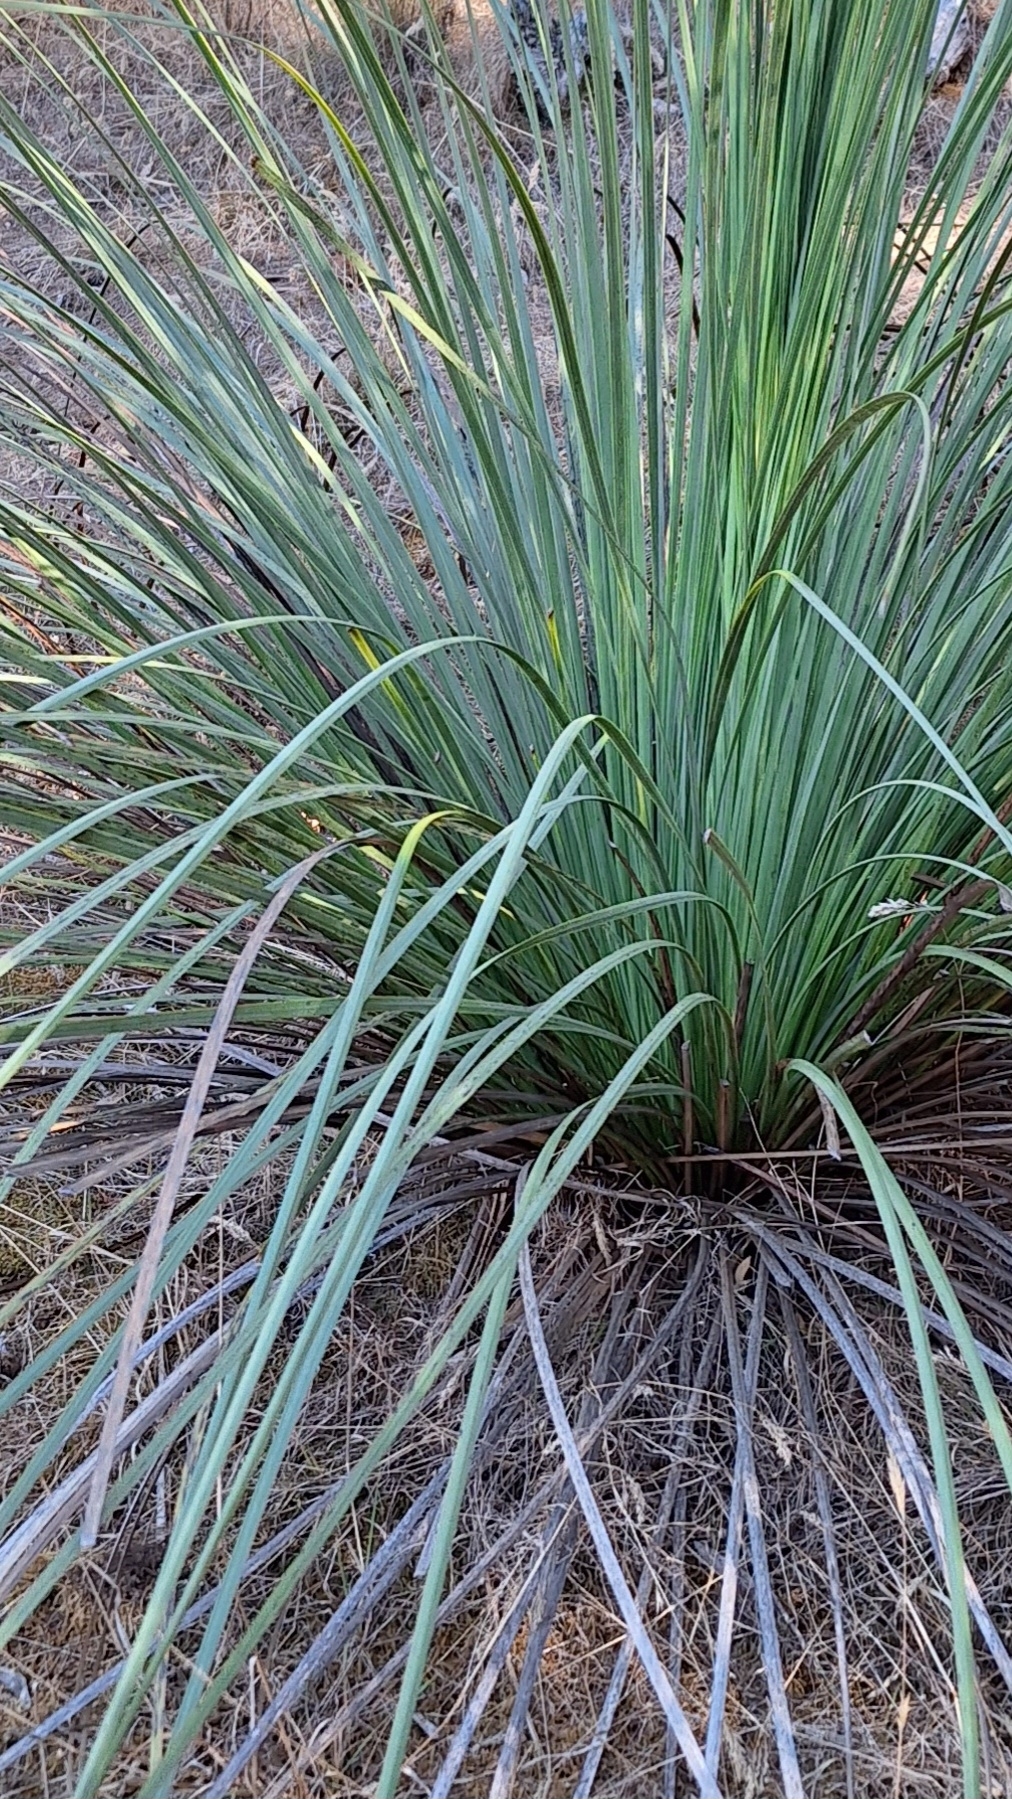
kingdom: Plantae
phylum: Tracheophyta
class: Liliopsida
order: Asparagales
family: Asphodelaceae
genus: Xanthorrhoea
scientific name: Xanthorrhoea semiplana
